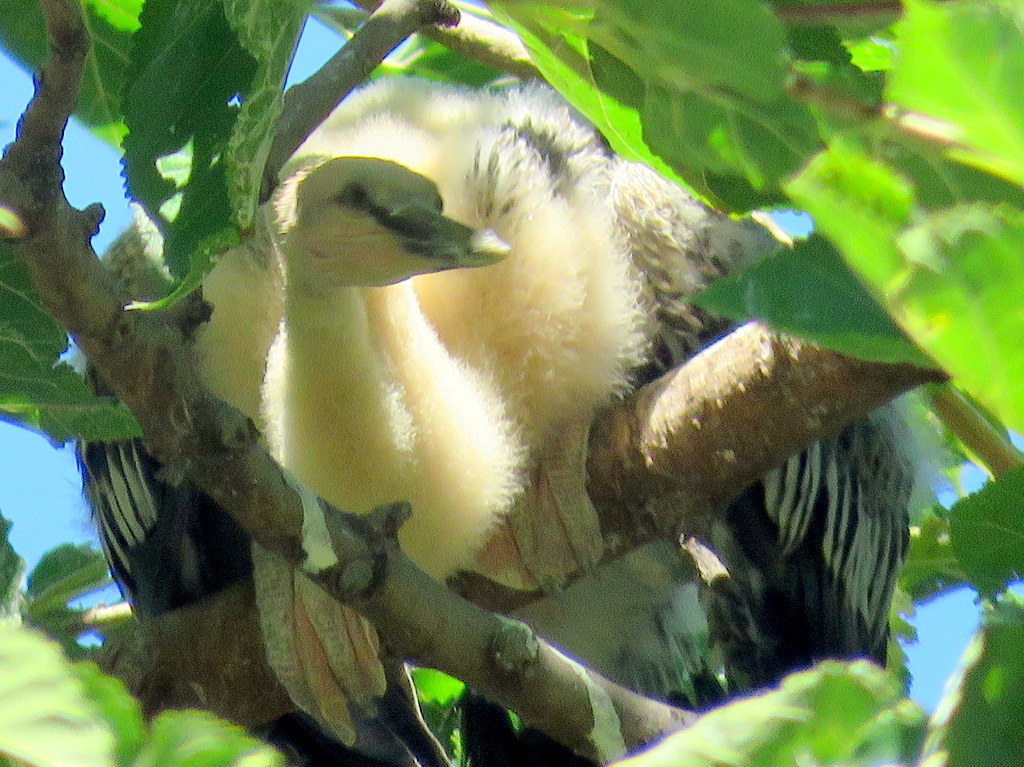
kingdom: Animalia
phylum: Chordata
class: Aves
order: Suliformes
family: Anhingidae
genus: Anhinga
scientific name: Anhinga anhinga
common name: Anhinga
